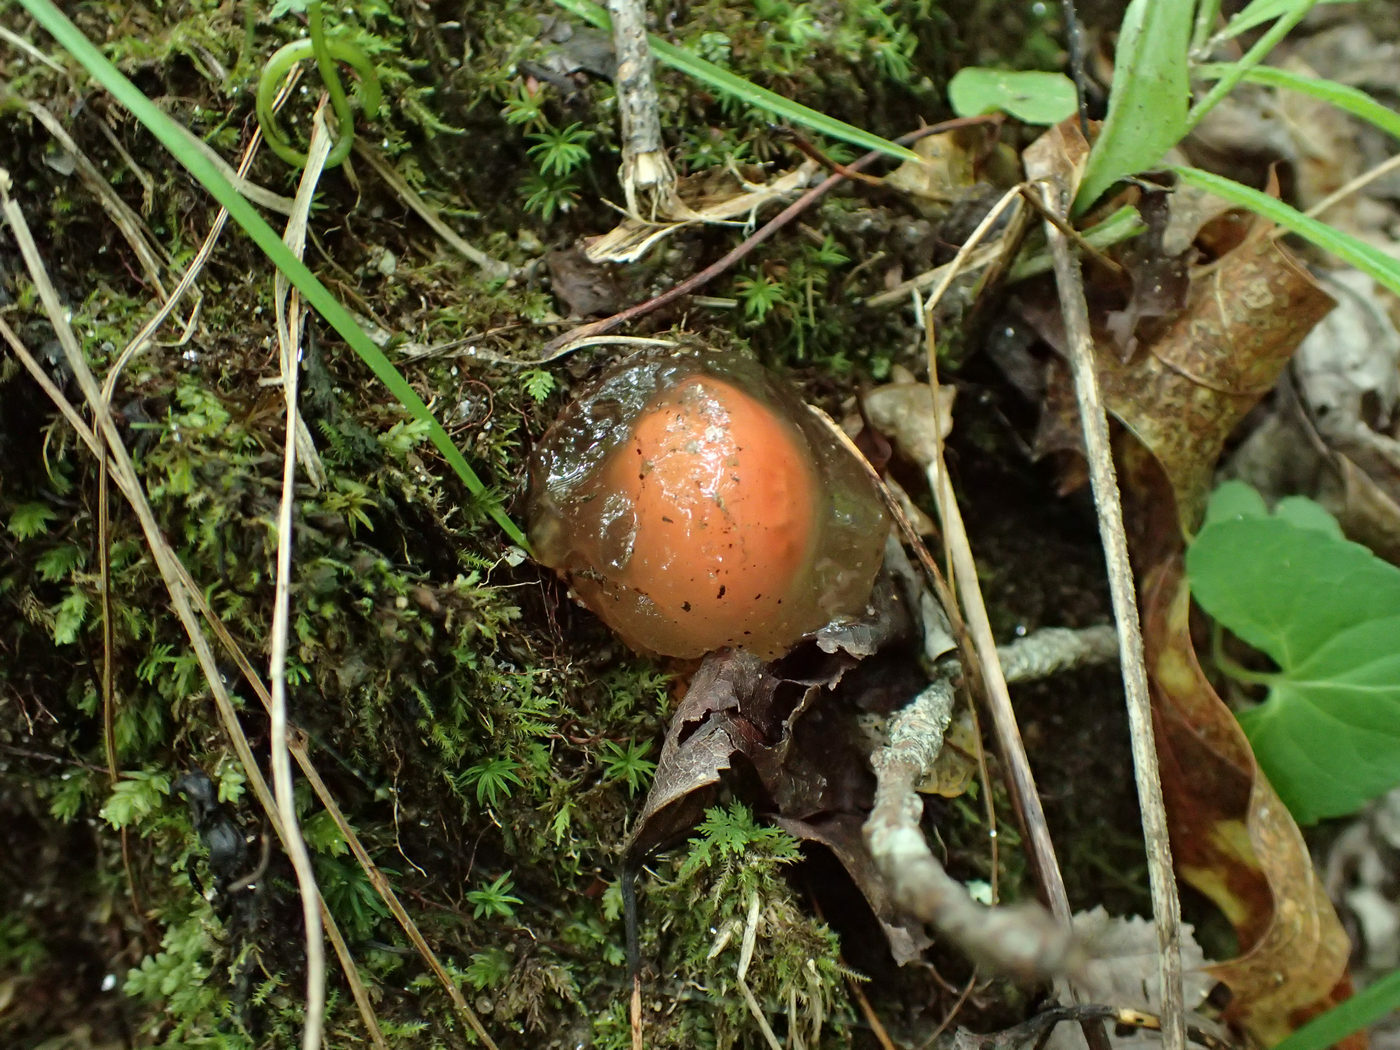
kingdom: Fungi
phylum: Basidiomycota
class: Agaricomycetes
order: Boletales
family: Calostomataceae
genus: Calostoma
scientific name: Calostoma cinnabarinum
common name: Stalked puffball-in-aspic
